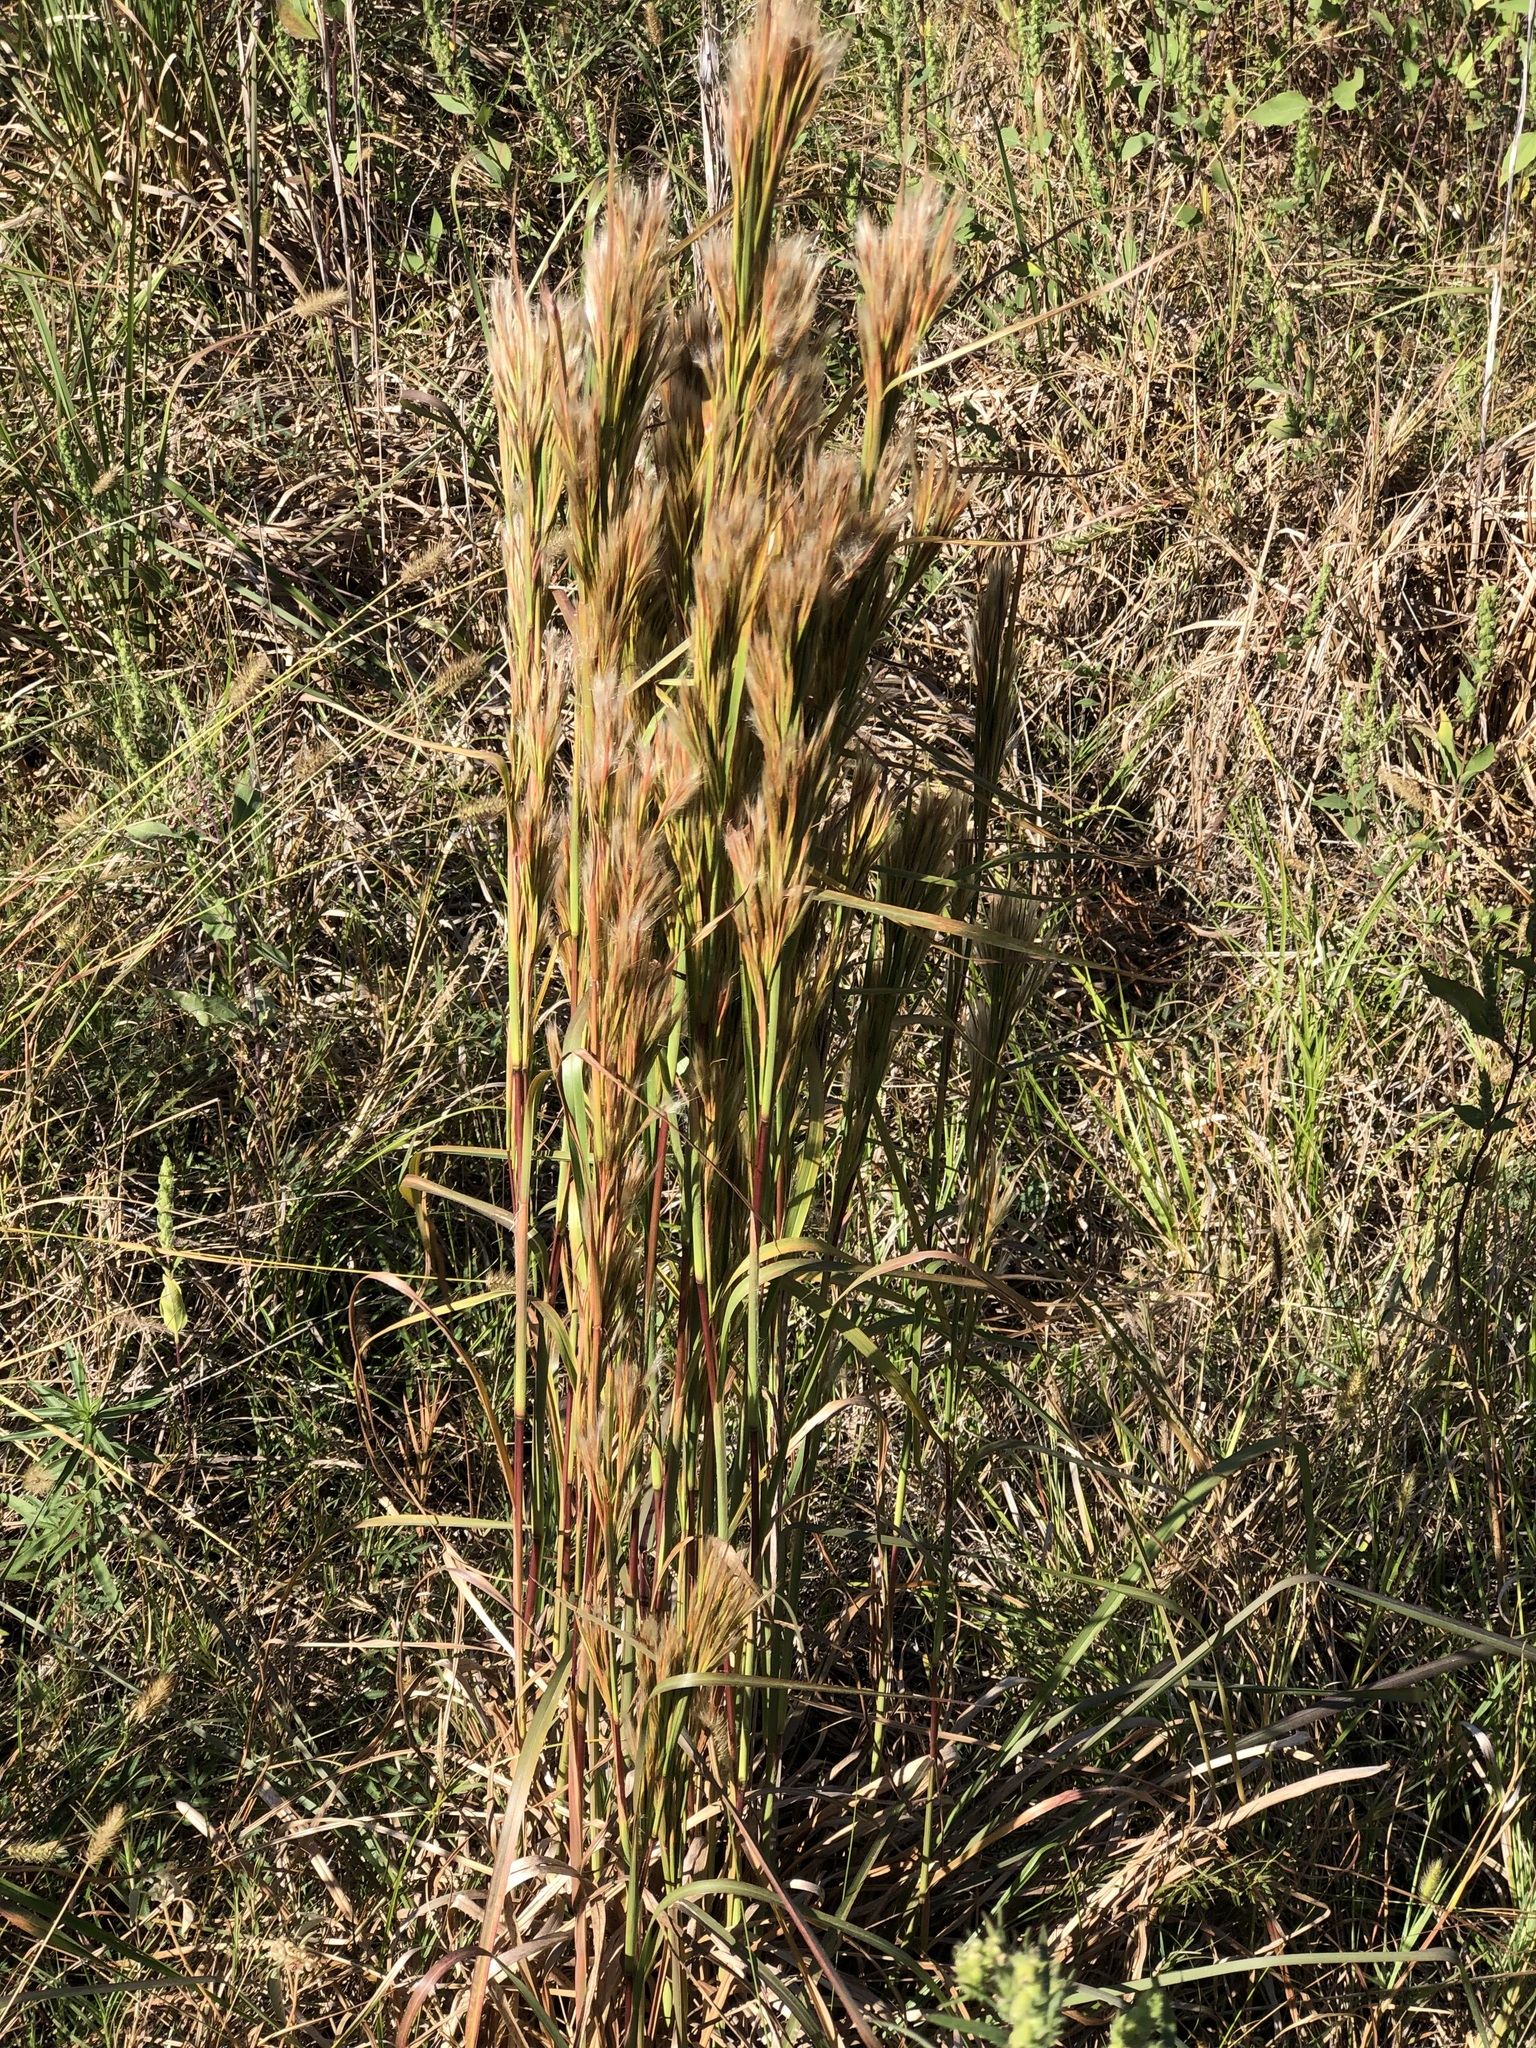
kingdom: Plantae
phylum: Tracheophyta
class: Liliopsida
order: Poales
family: Poaceae
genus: Andropogon
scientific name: Andropogon tenuispatheus
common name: Bushy bluestem
